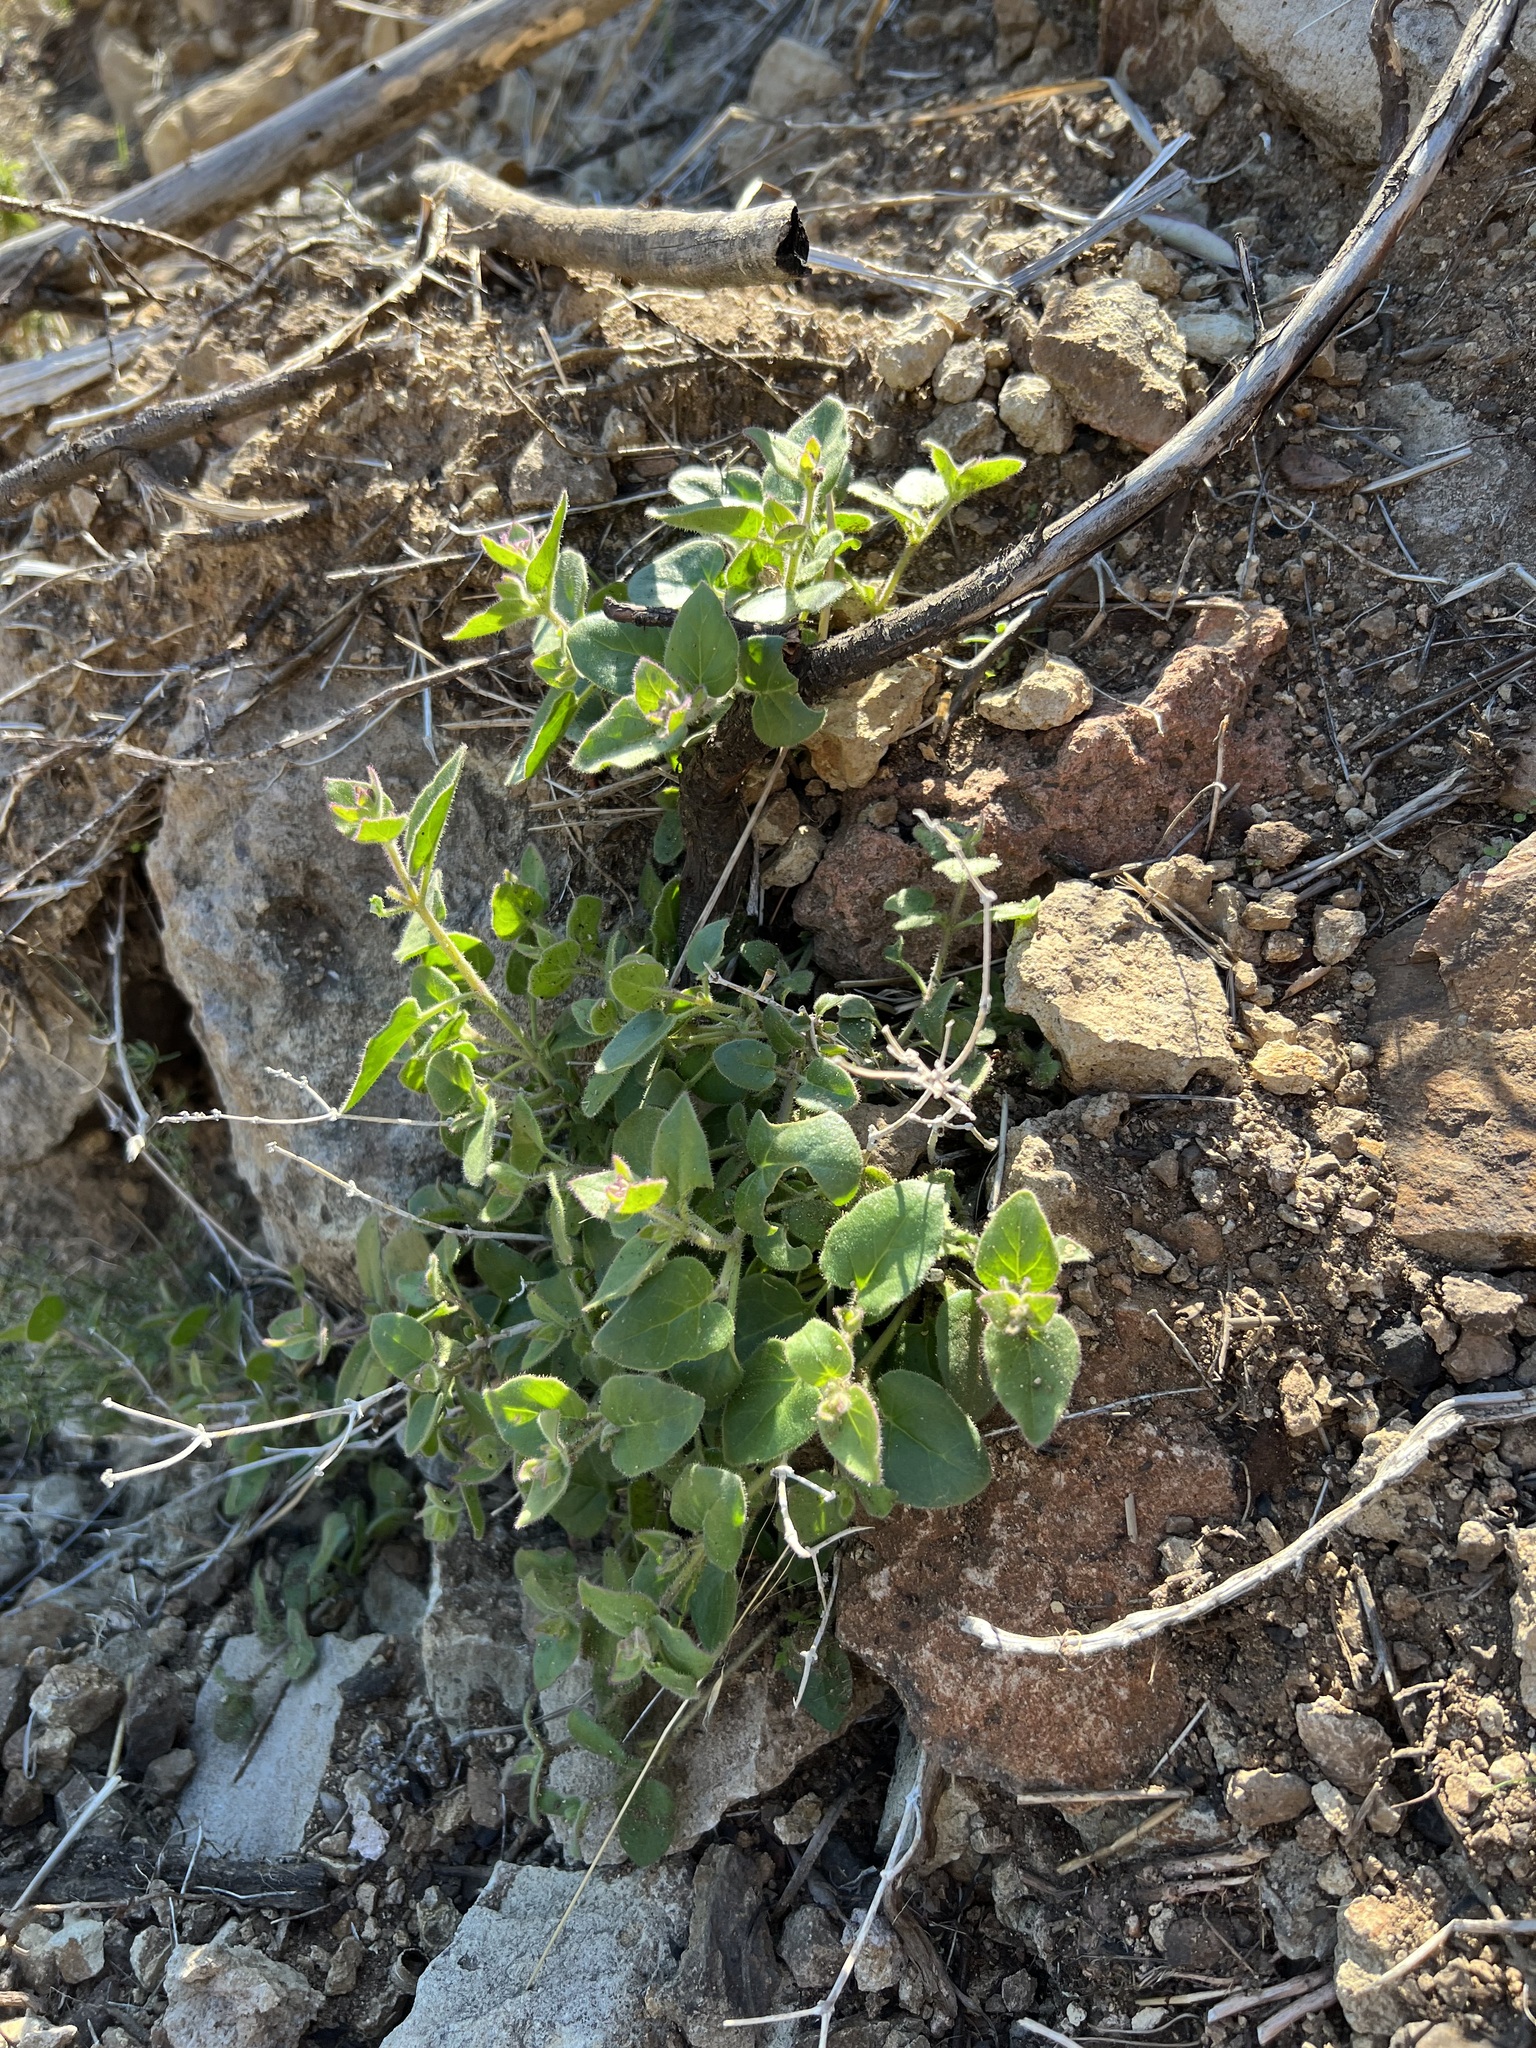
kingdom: Plantae
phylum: Tracheophyta
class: Magnoliopsida
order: Caryophyllales
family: Nyctaginaceae
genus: Mirabilis
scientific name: Mirabilis laevis
